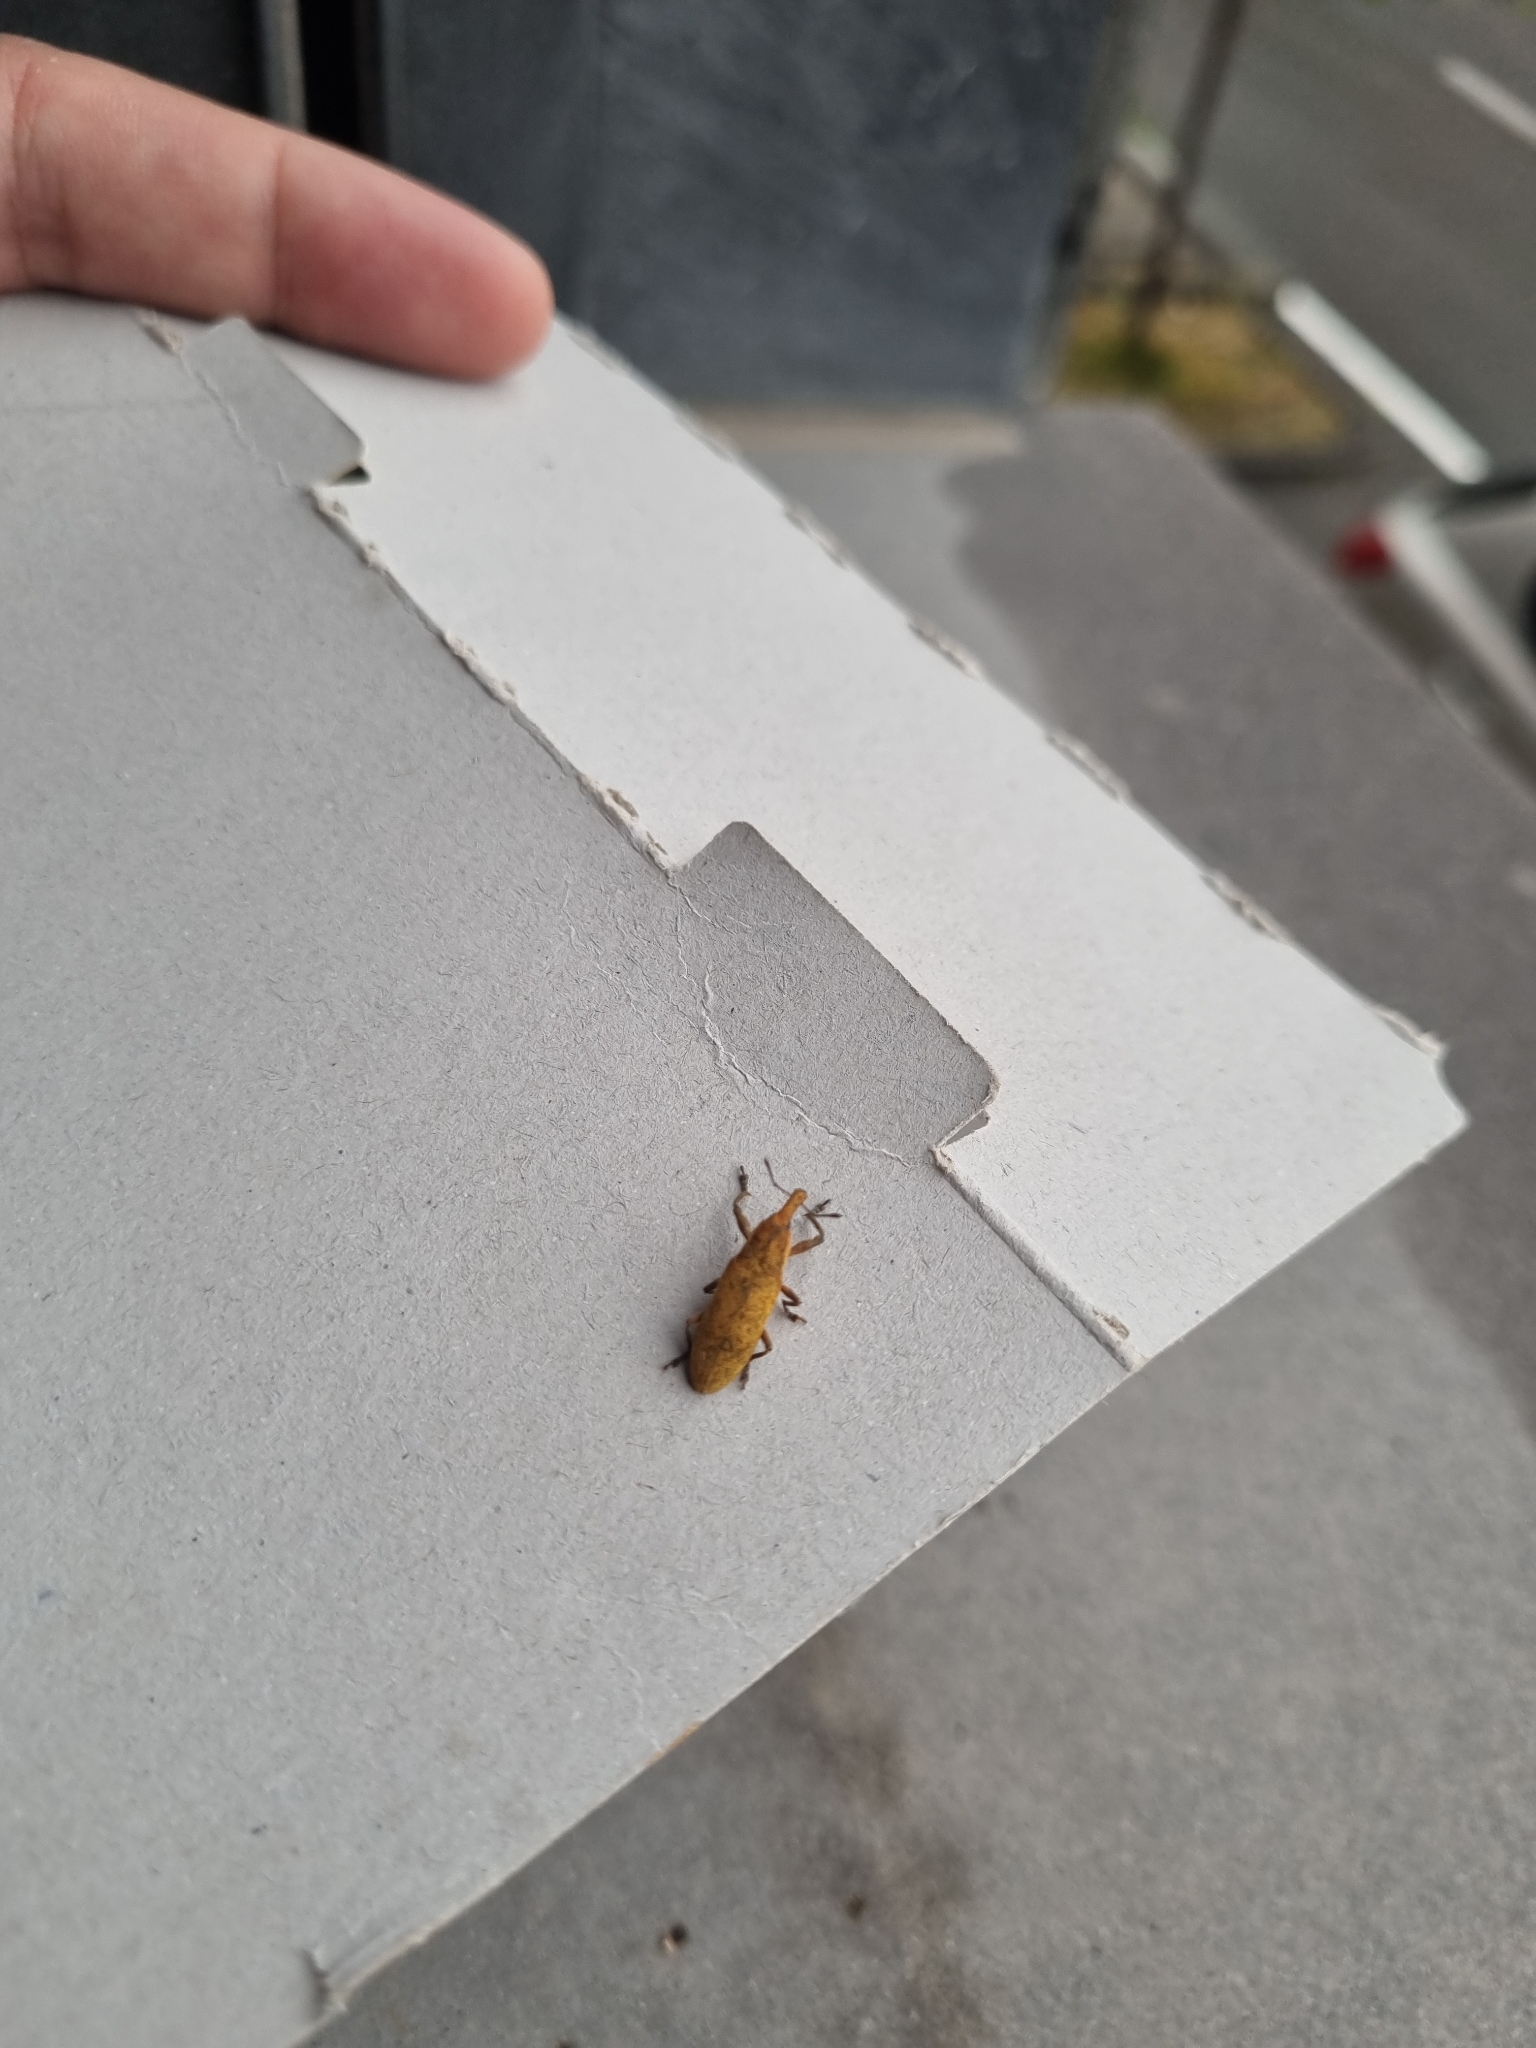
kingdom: Animalia
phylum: Arthropoda
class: Insecta
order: Coleoptera
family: Curculionidae
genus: Lixus
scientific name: Lixus pulverulentus
